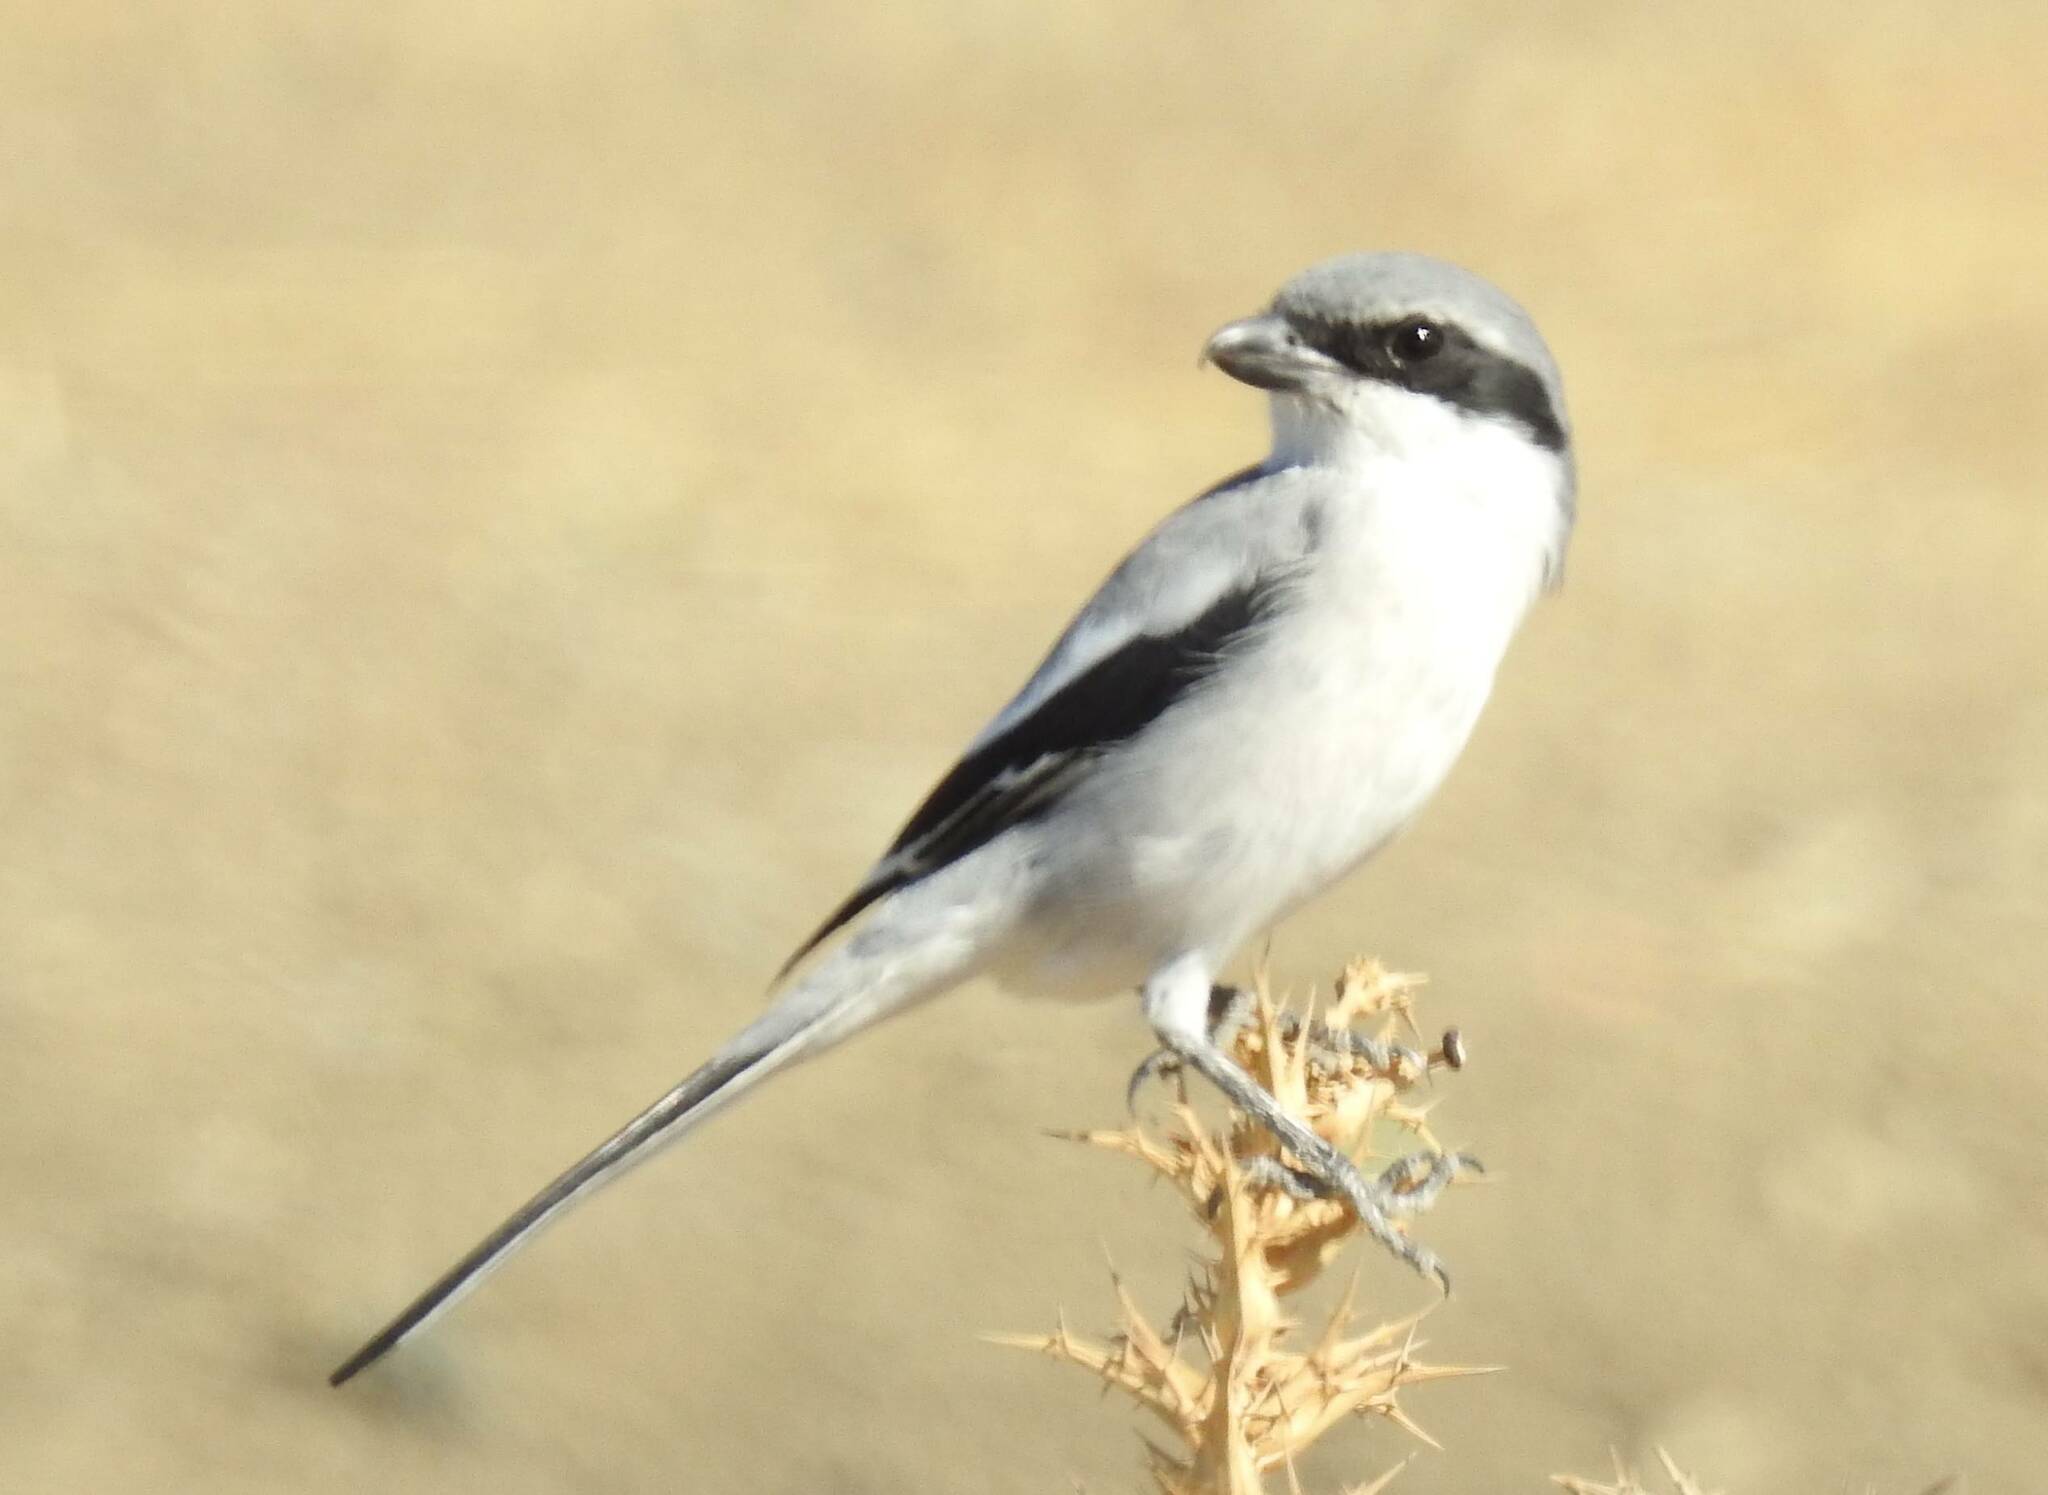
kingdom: Animalia
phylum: Chordata
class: Aves
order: Passeriformes
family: Laniidae
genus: Lanius
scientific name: Lanius excubitor
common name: Great grey shrike
